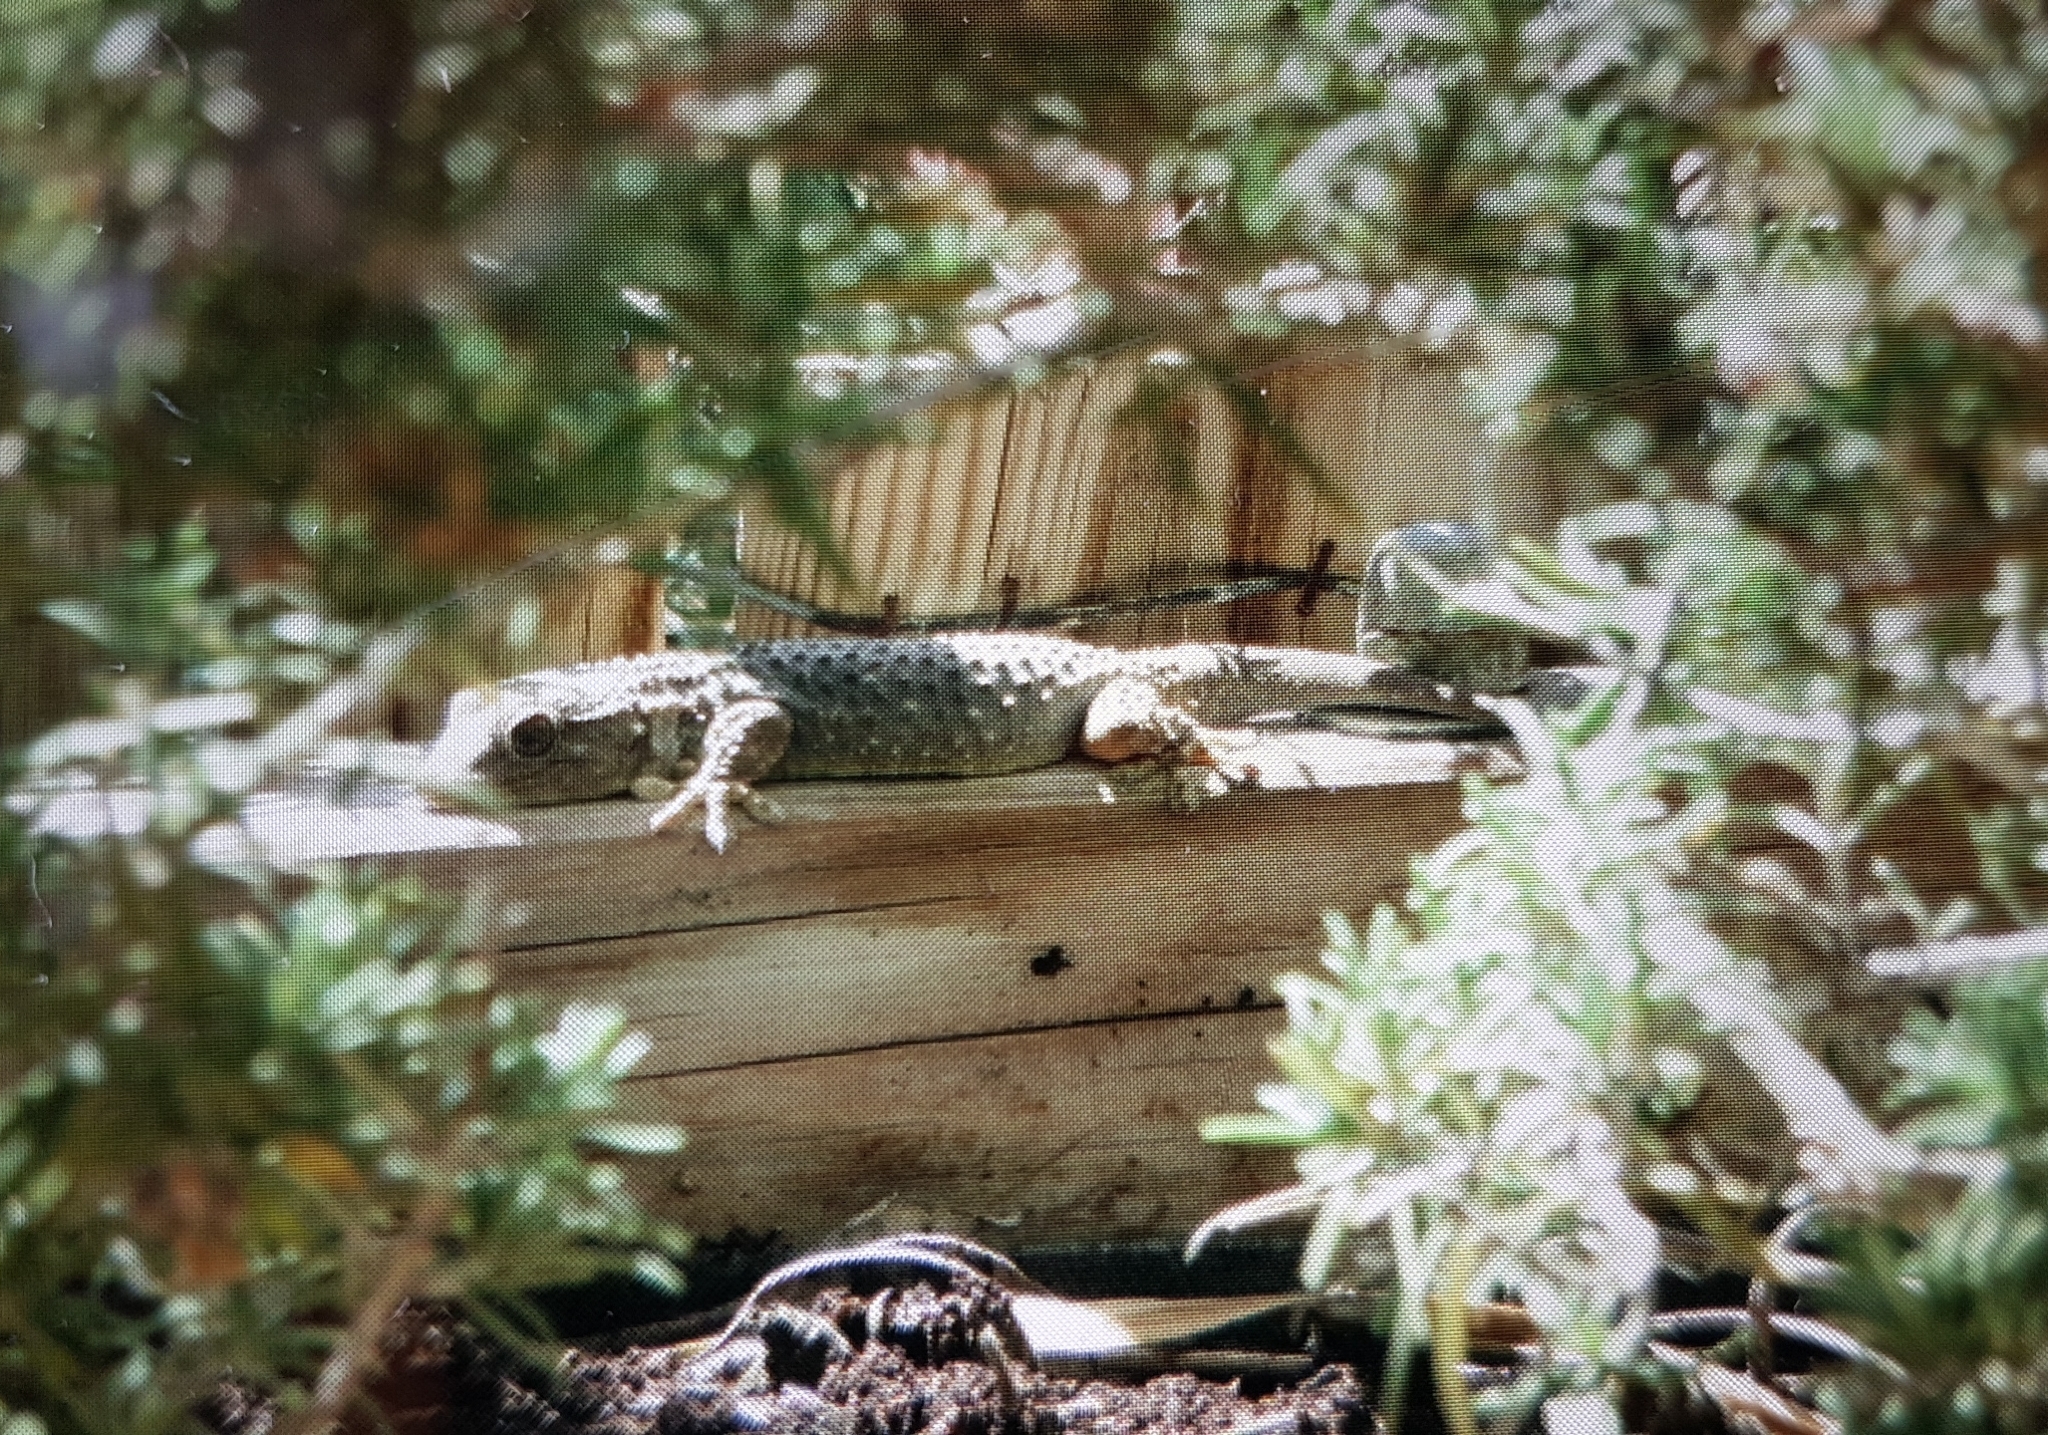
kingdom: Animalia
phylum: Chordata
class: Squamata
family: Phyllodactylidae
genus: Tarentola
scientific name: Tarentola mauritanica
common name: Moorish gecko
